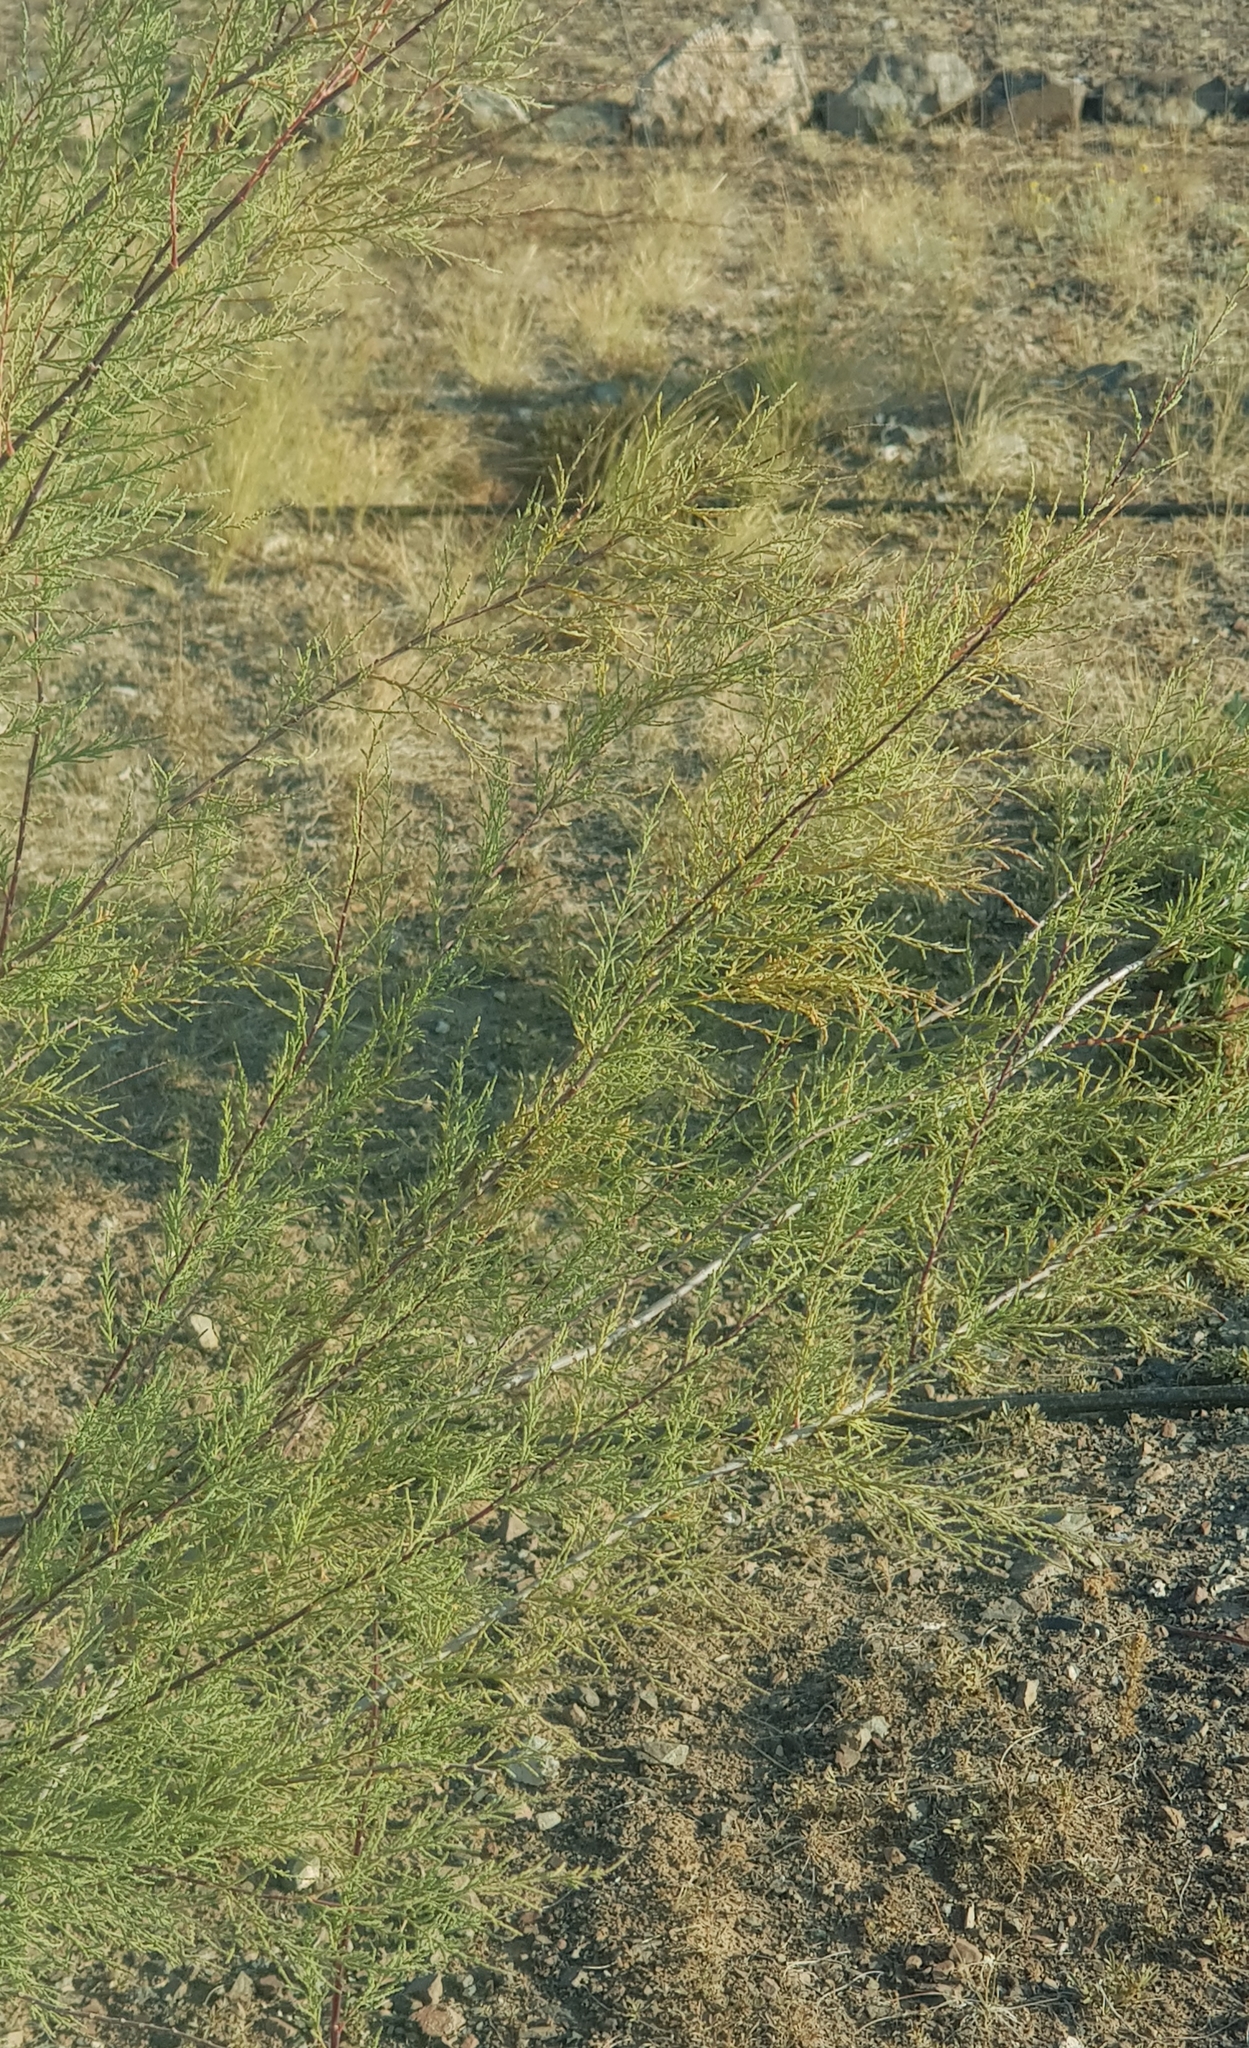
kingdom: Plantae
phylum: Tracheophyta
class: Magnoliopsida
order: Caryophyllales
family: Tamaricaceae
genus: Tamarix
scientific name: Tamarix ramosissima
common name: Pink tamarisk
